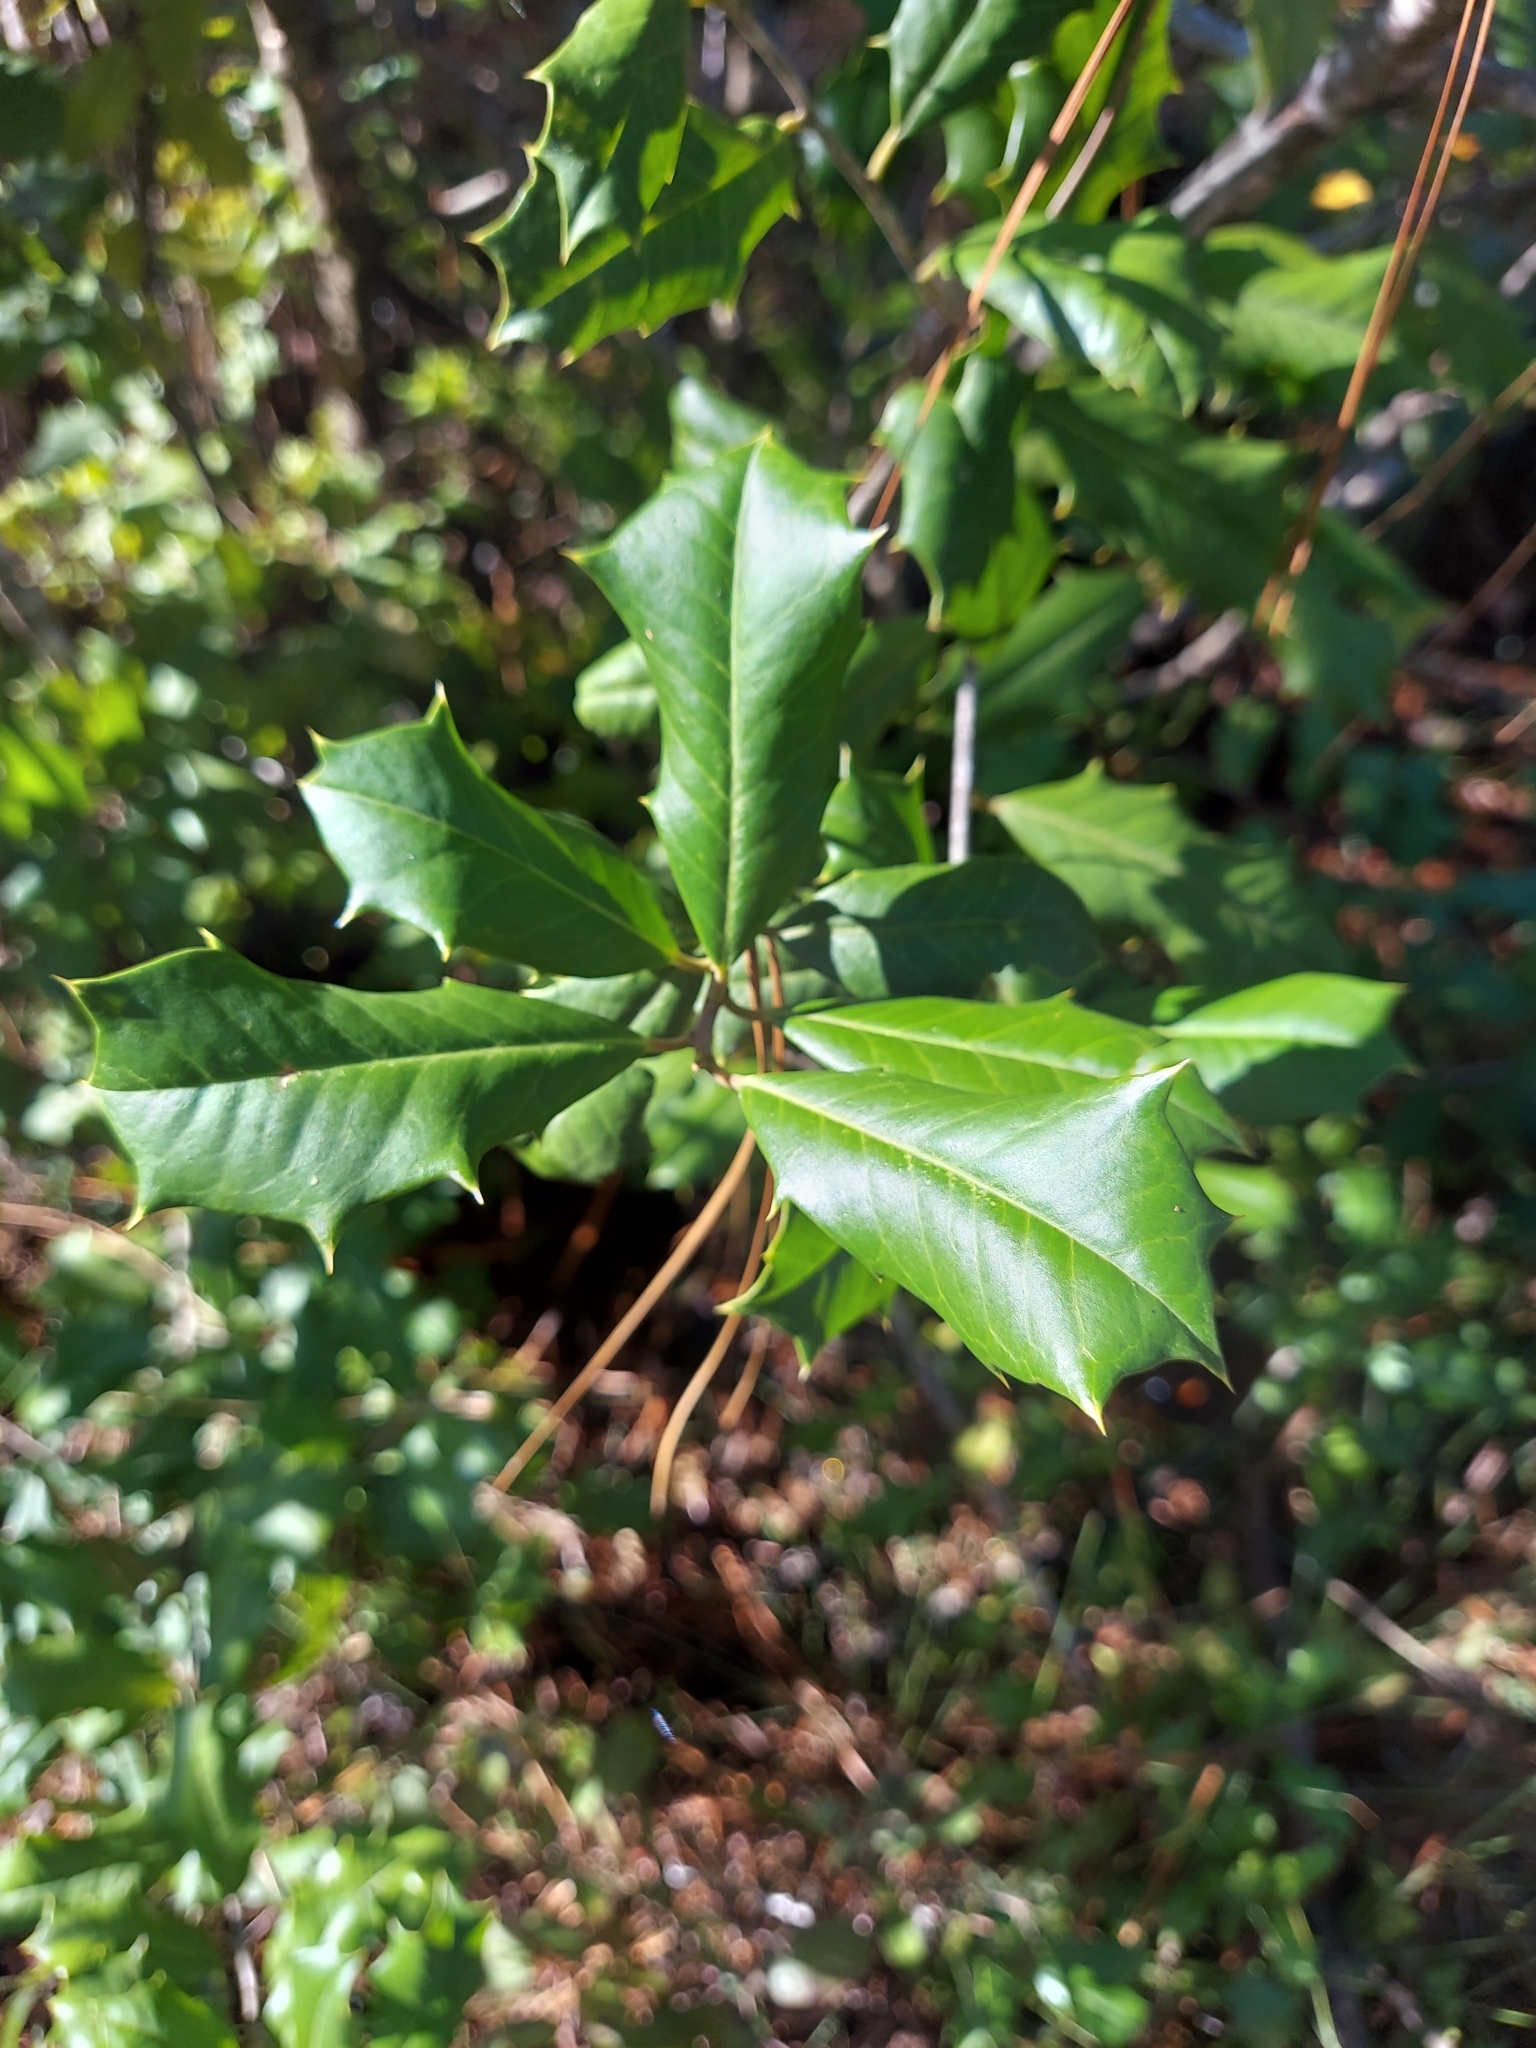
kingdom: Plantae
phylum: Tracheophyta
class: Magnoliopsida
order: Aquifoliales
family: Aquifoliaceae
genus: Ilex
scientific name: Ilex opaca
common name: American holly
